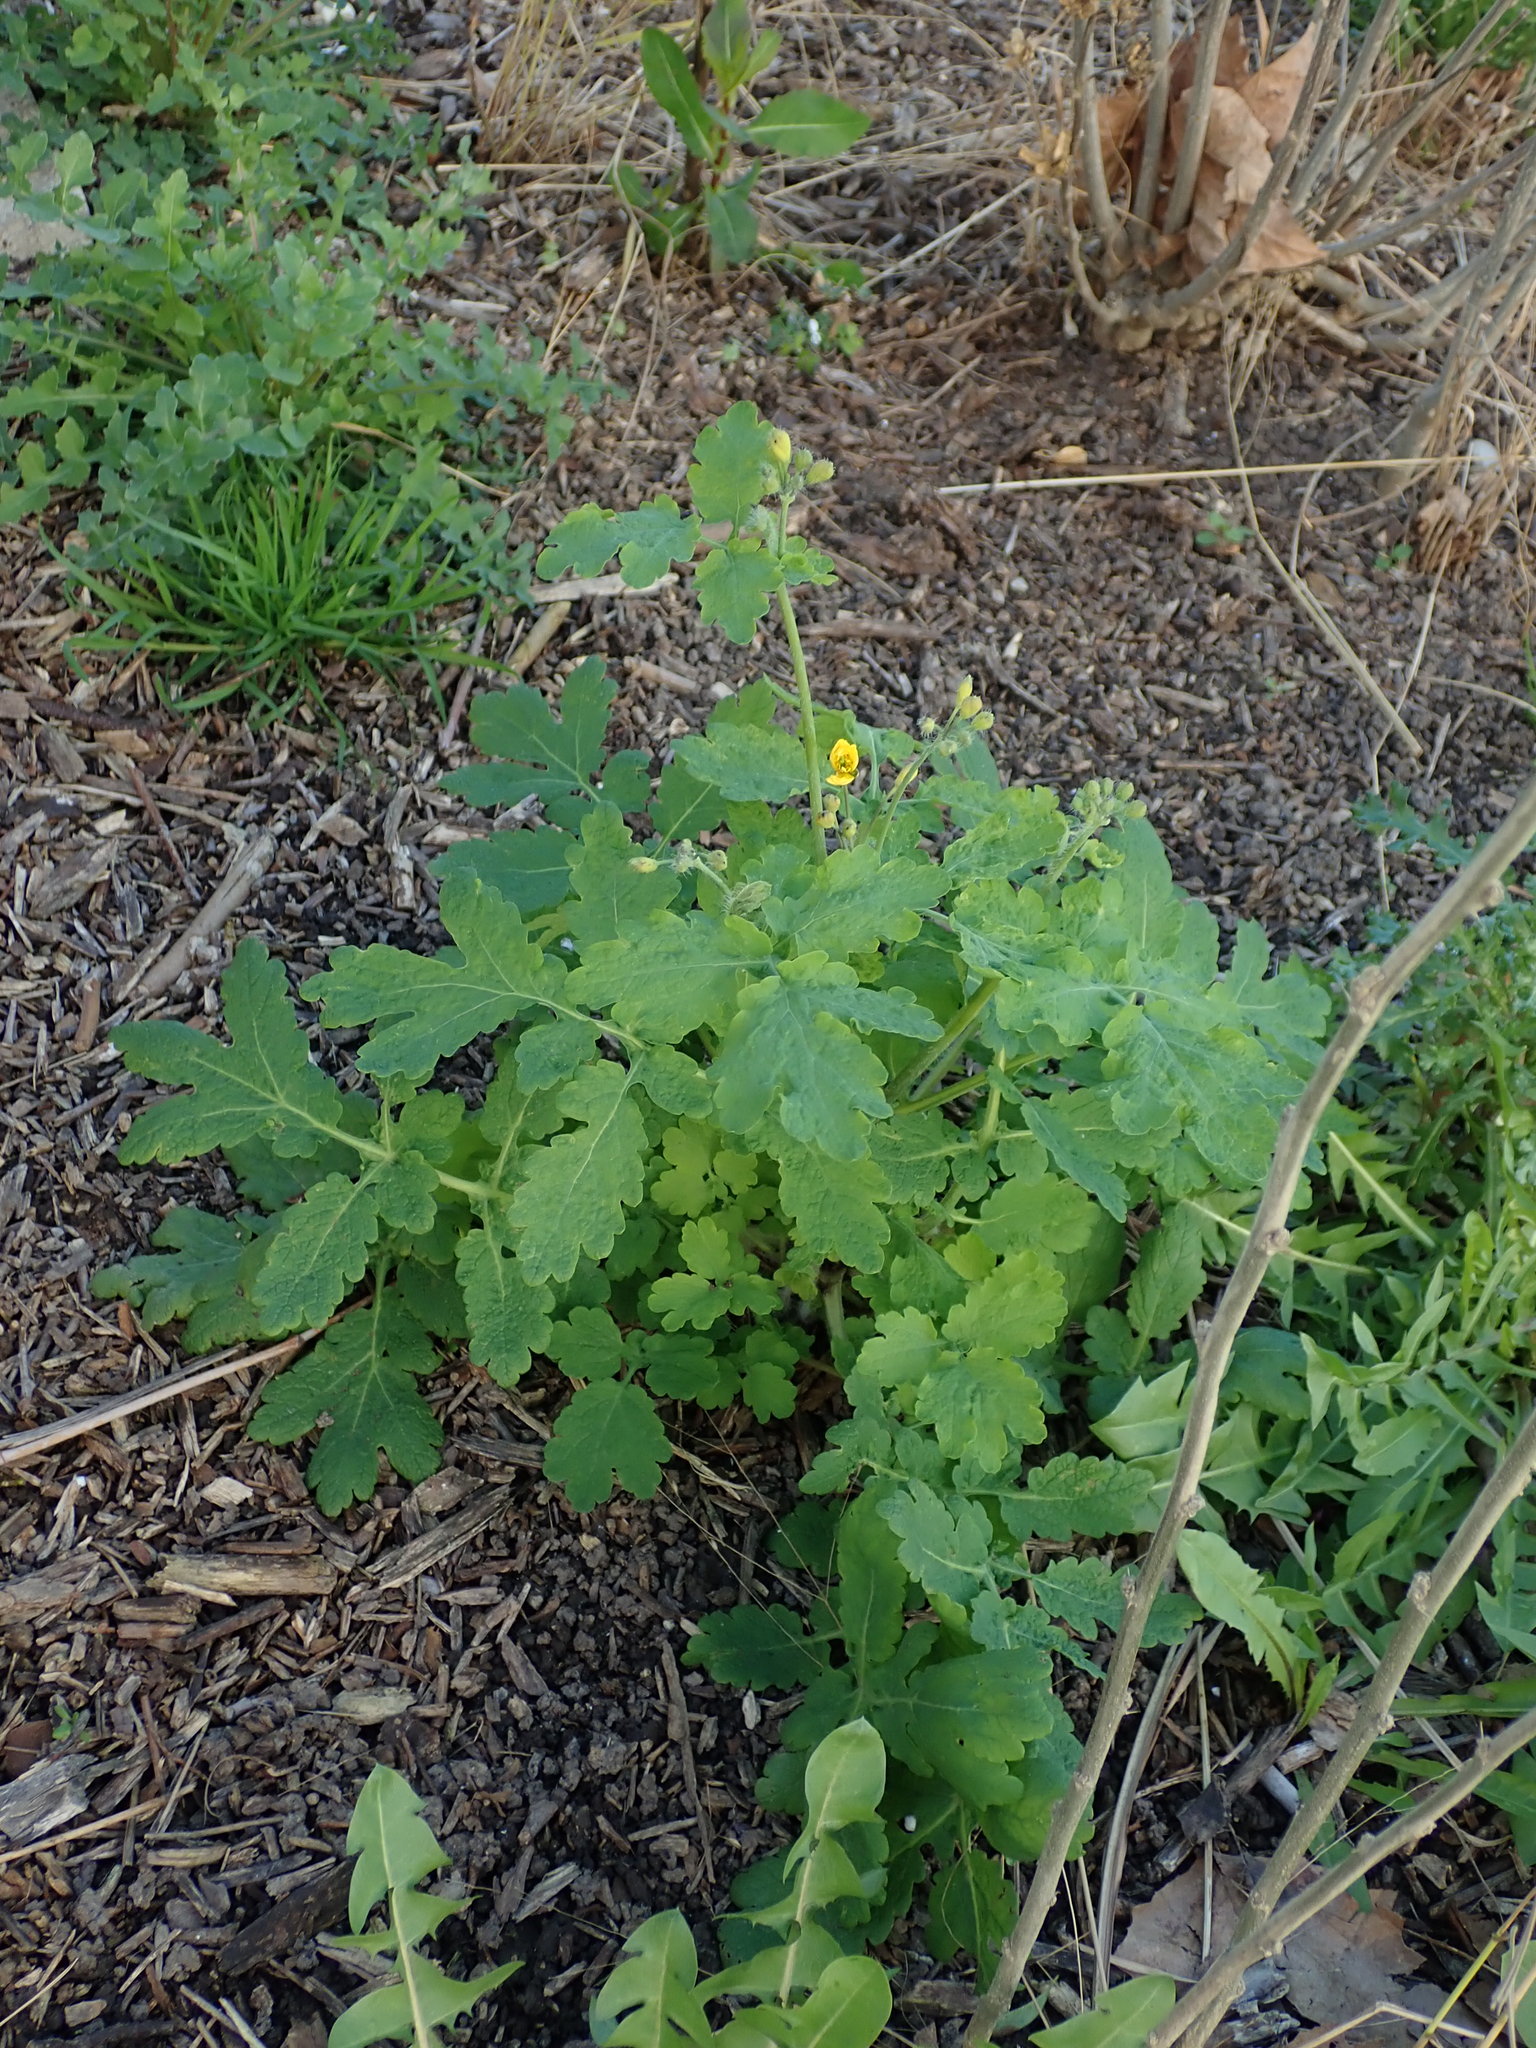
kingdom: Plantae
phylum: Tracheophyta
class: Magnoliopsida
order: Ranunculales
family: Papaveraceae
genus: Chelidonium
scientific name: Chelidonium majus
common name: Greater celandine
